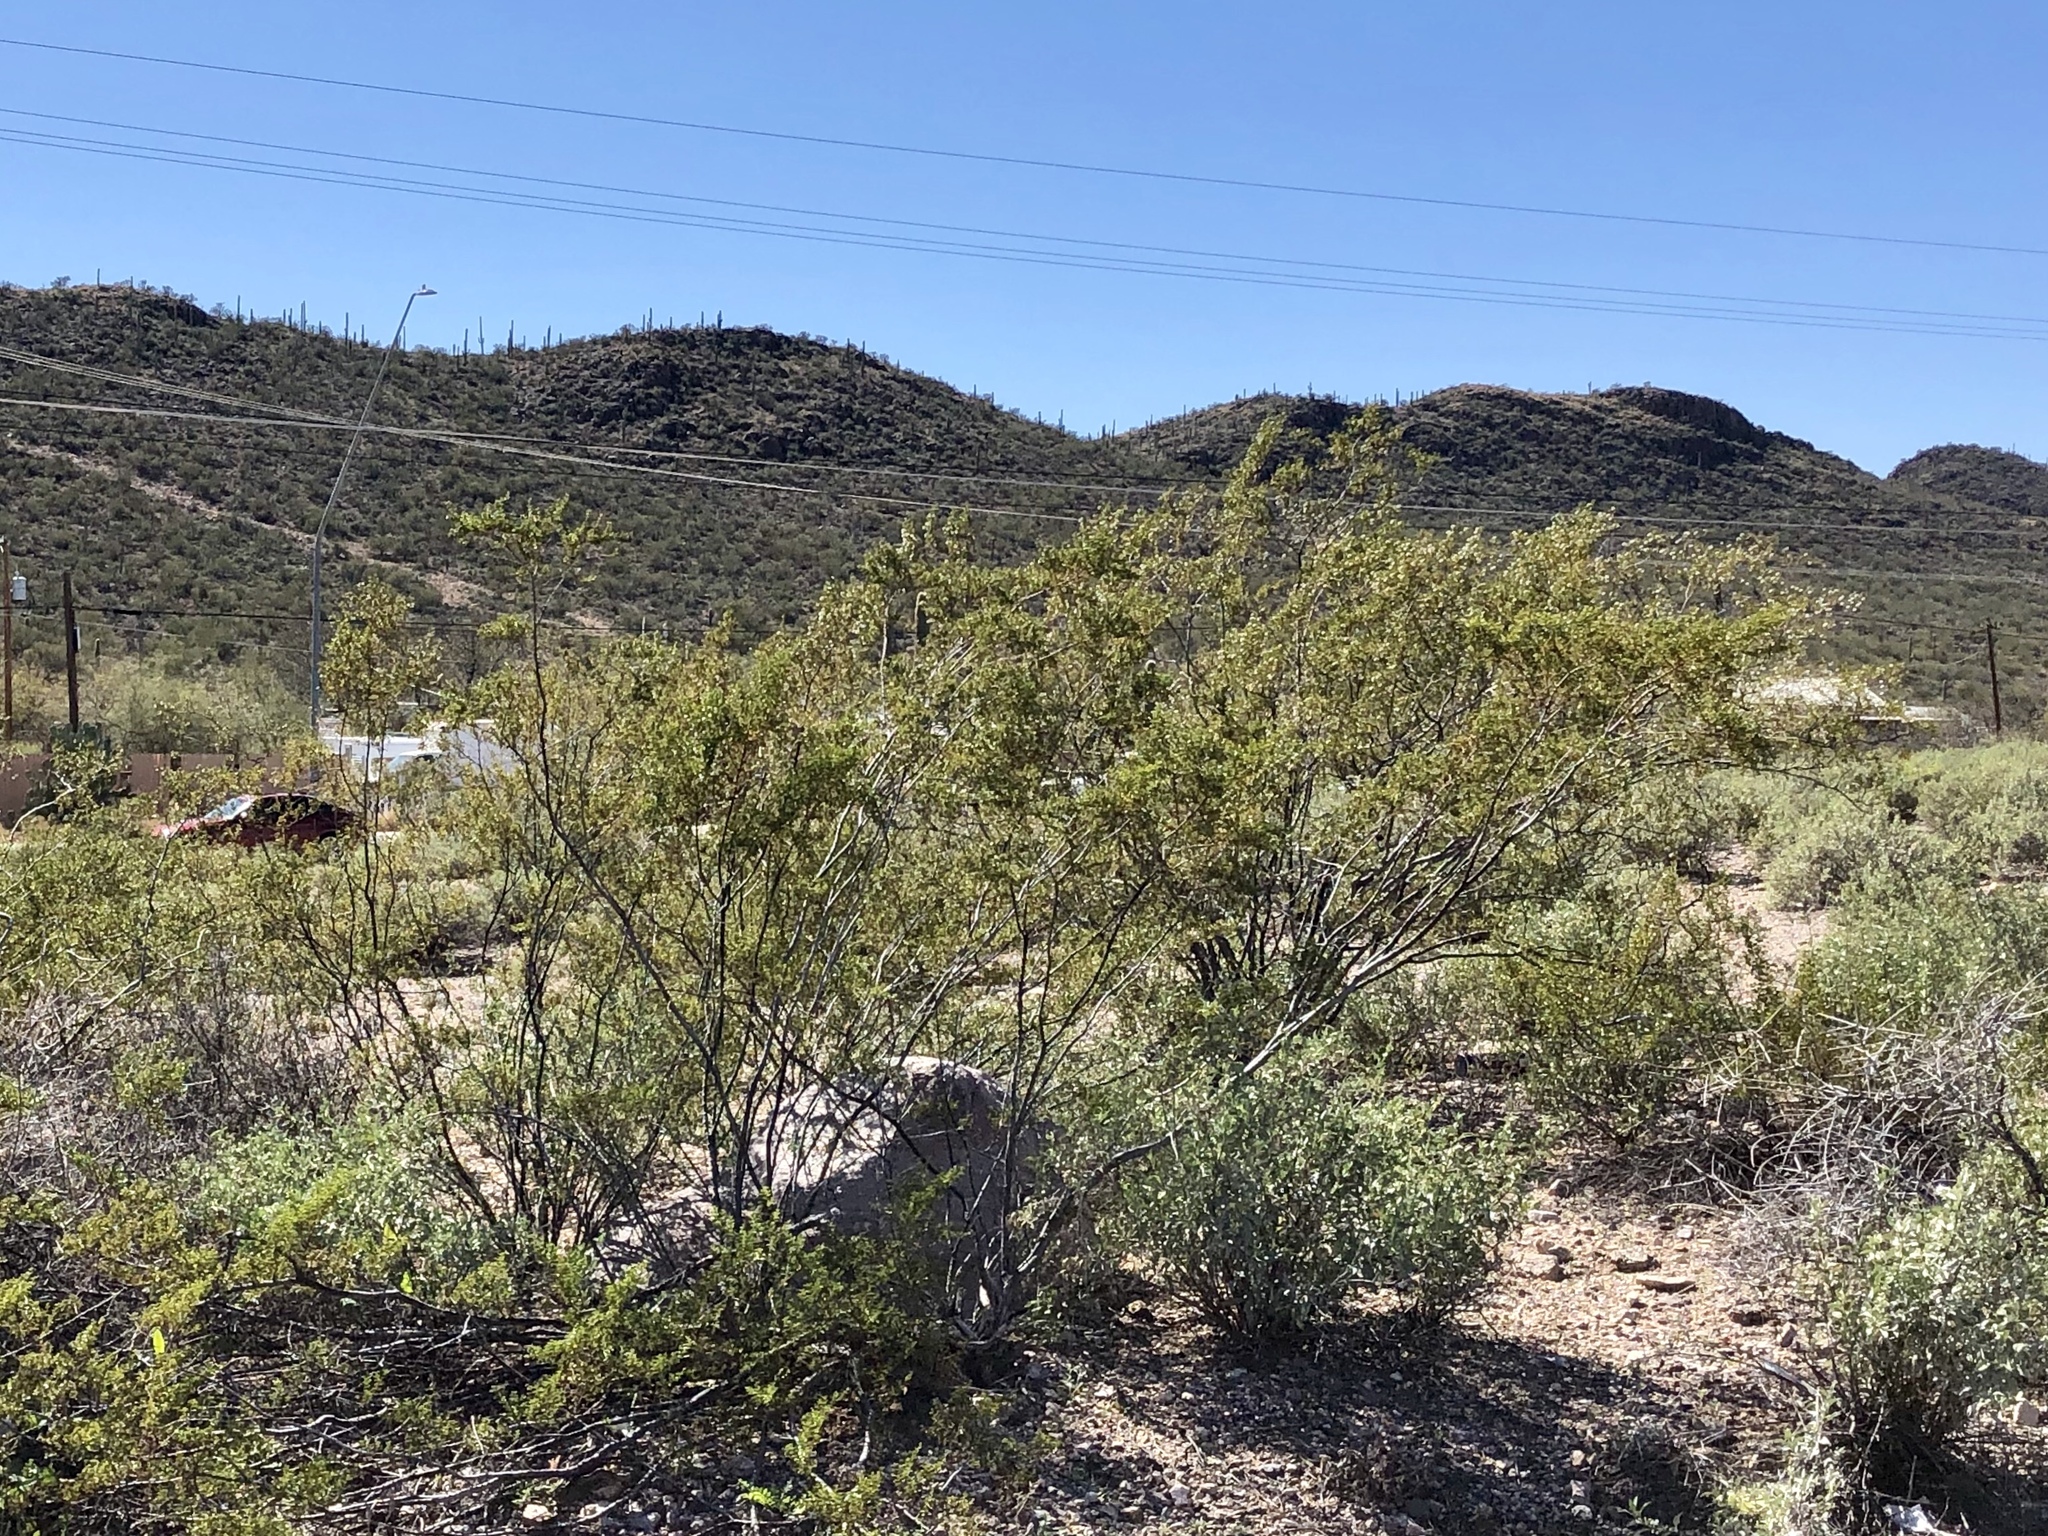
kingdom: Plantae
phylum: Tracheophyta
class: Magnoliopsida
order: Zygophyllales
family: Zygophyllaceae
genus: Larrea
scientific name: Larrea tridentata
